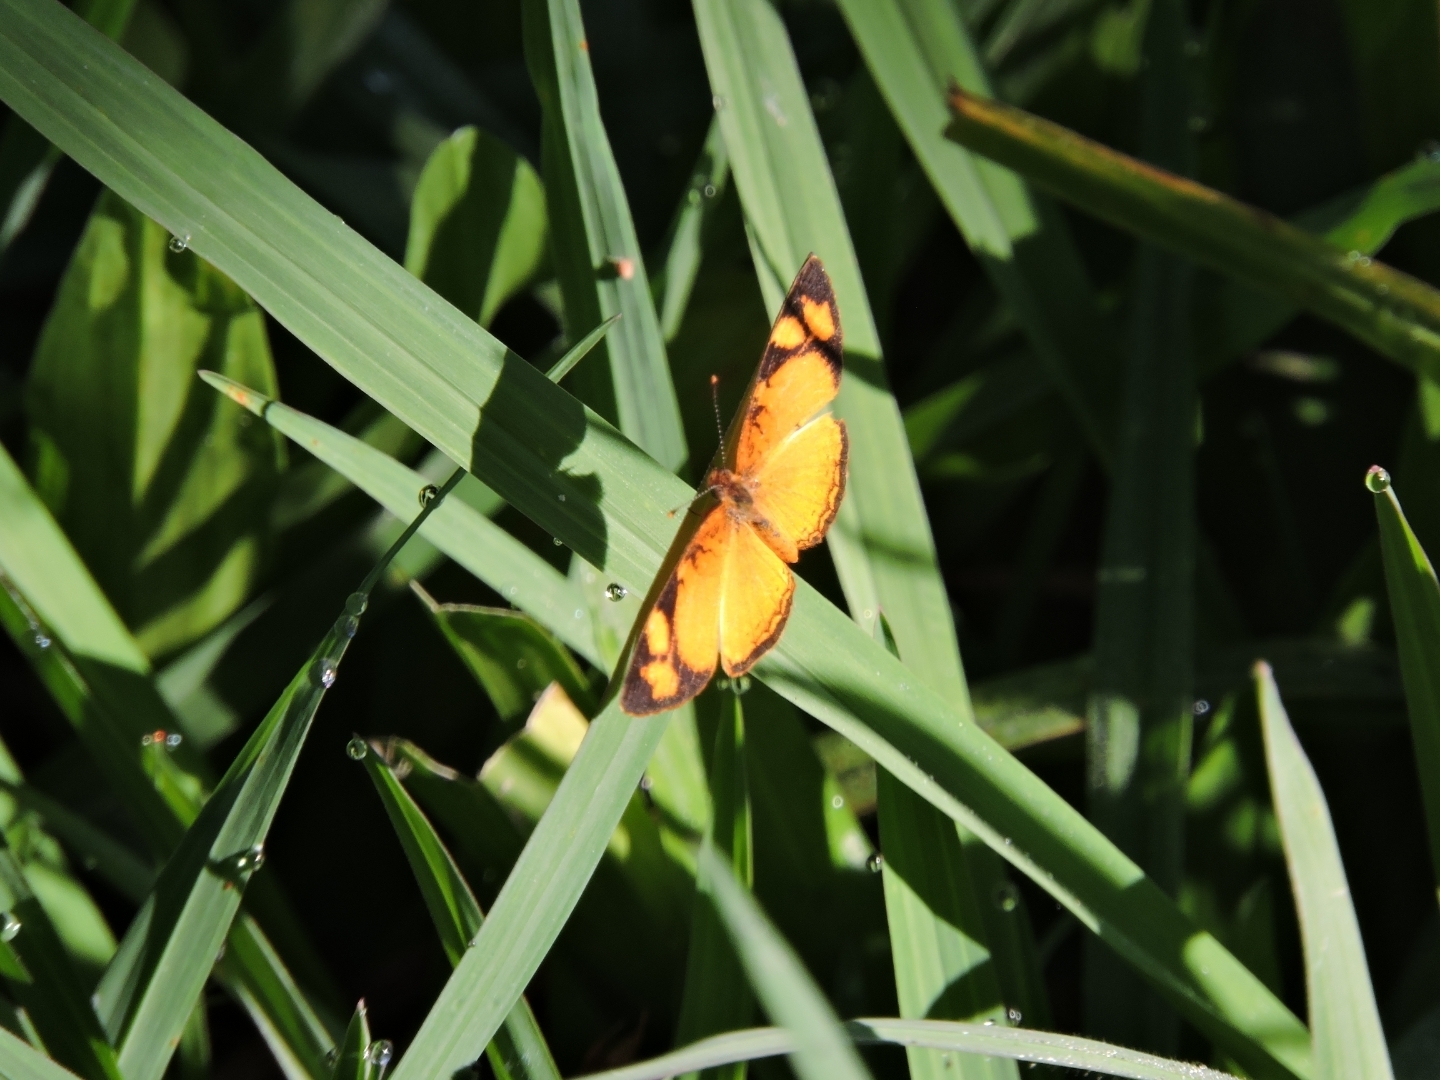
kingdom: Animalia
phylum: Arthropoda
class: Insecta
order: Lepidoptera
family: Nymphalidae
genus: Tegosa
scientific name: Tegosa claudina
